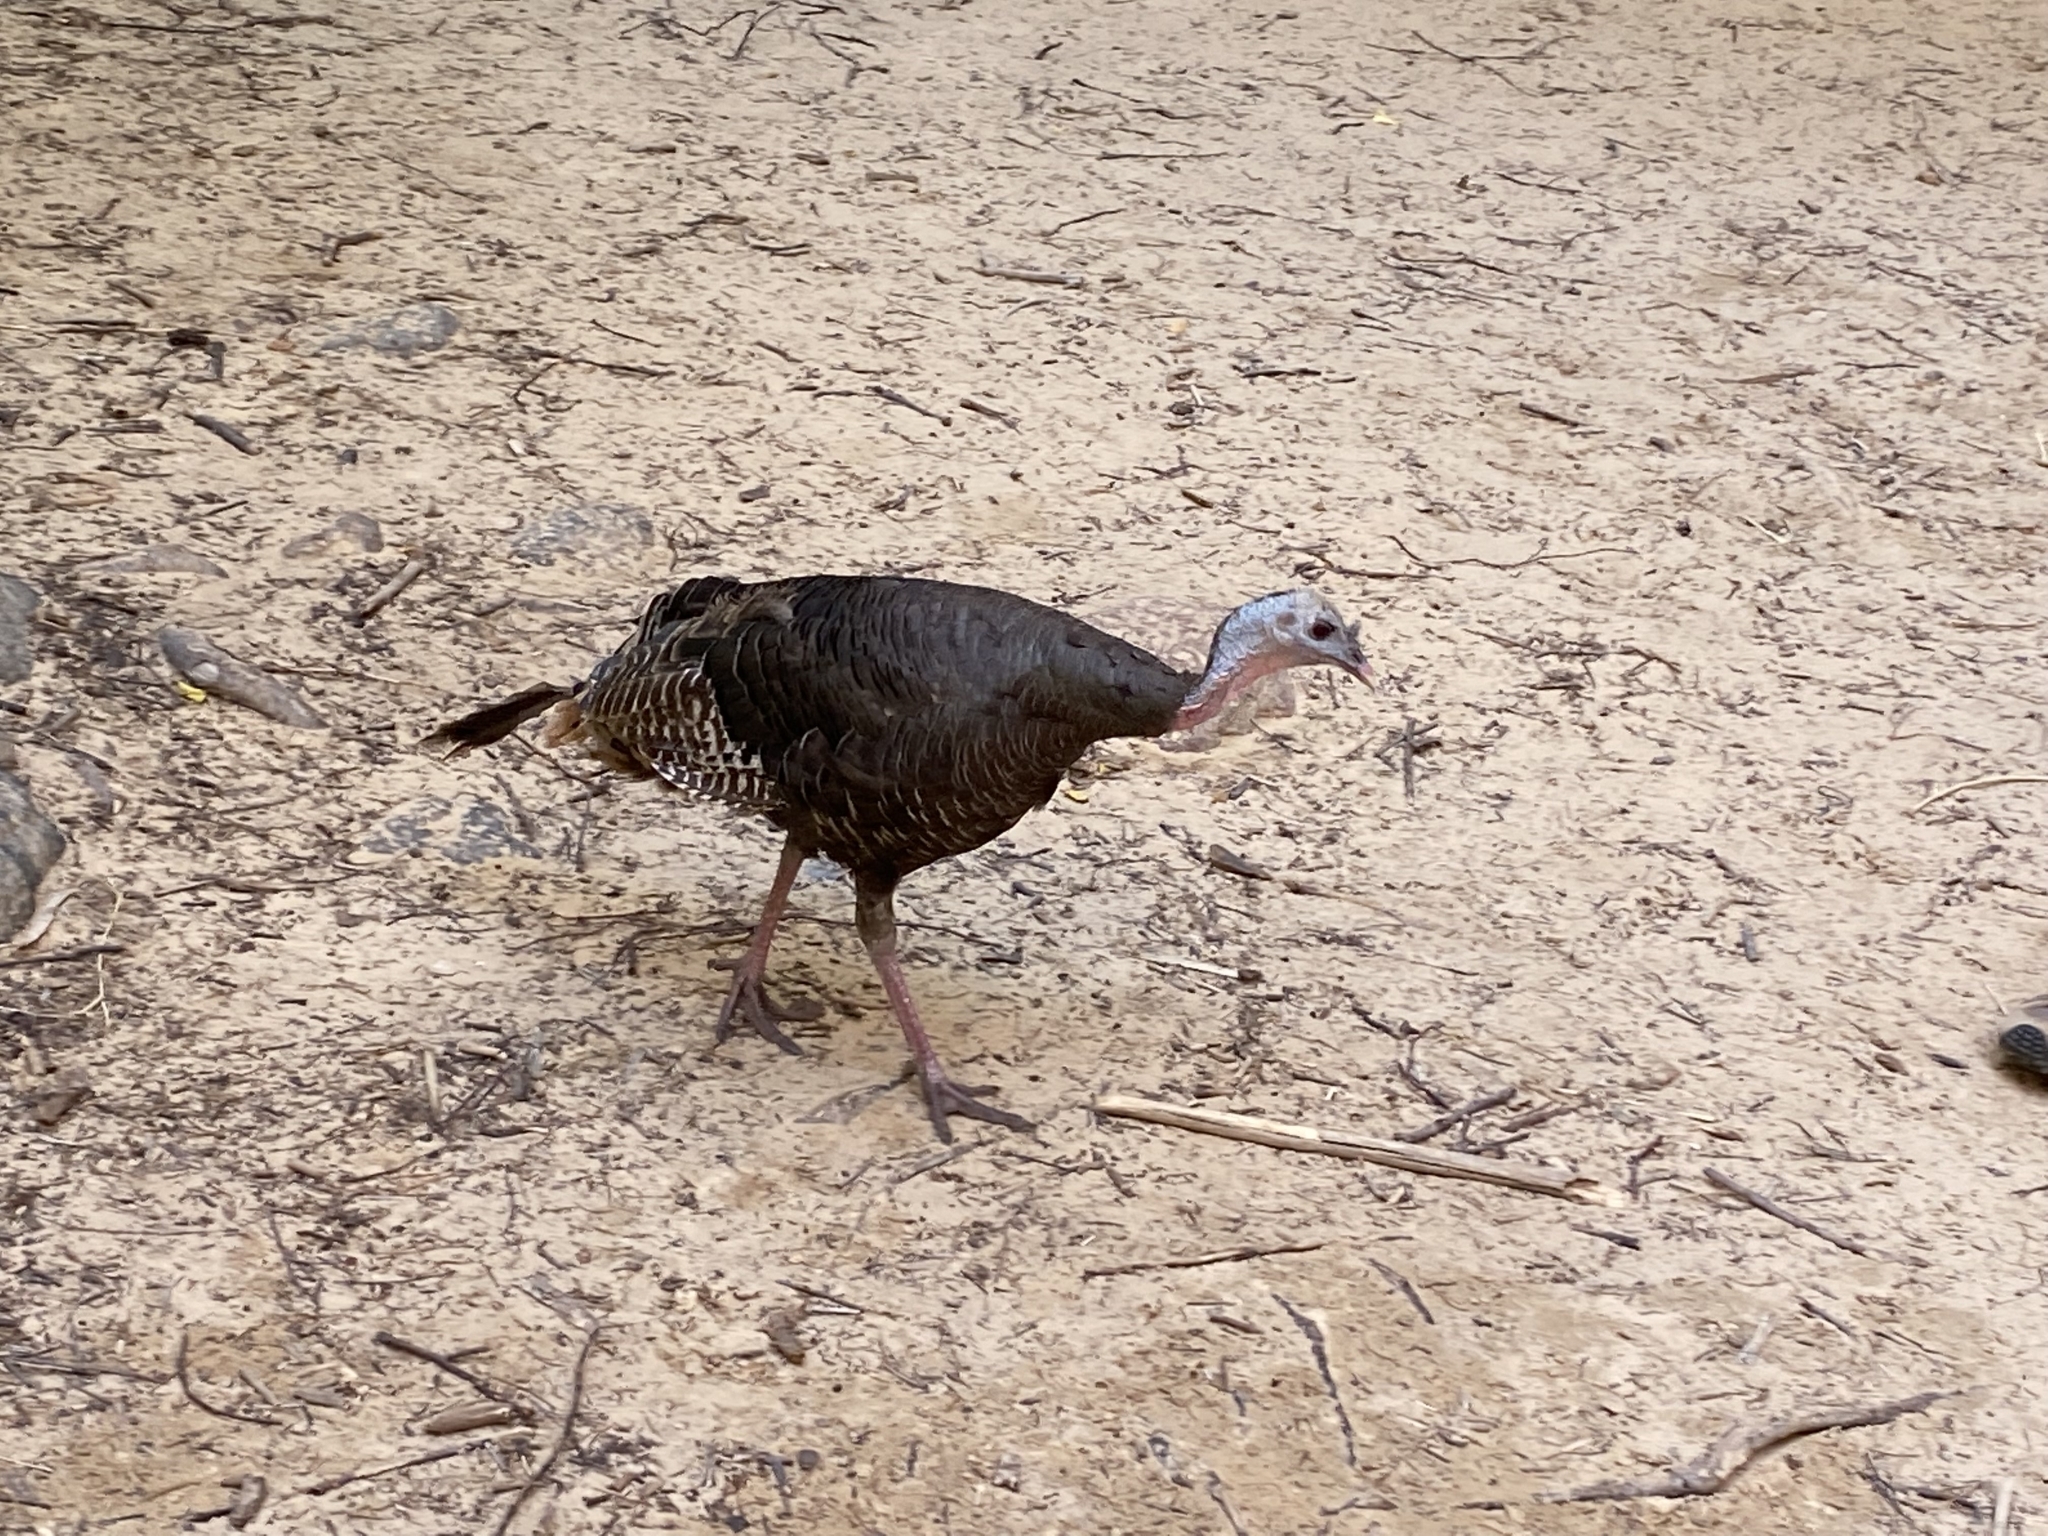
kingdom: Animalia
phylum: Chordata
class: Aves
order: Galliformes
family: Phasianidae
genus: Meleagris
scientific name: Meleagris gallopavo
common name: Wild turkey
